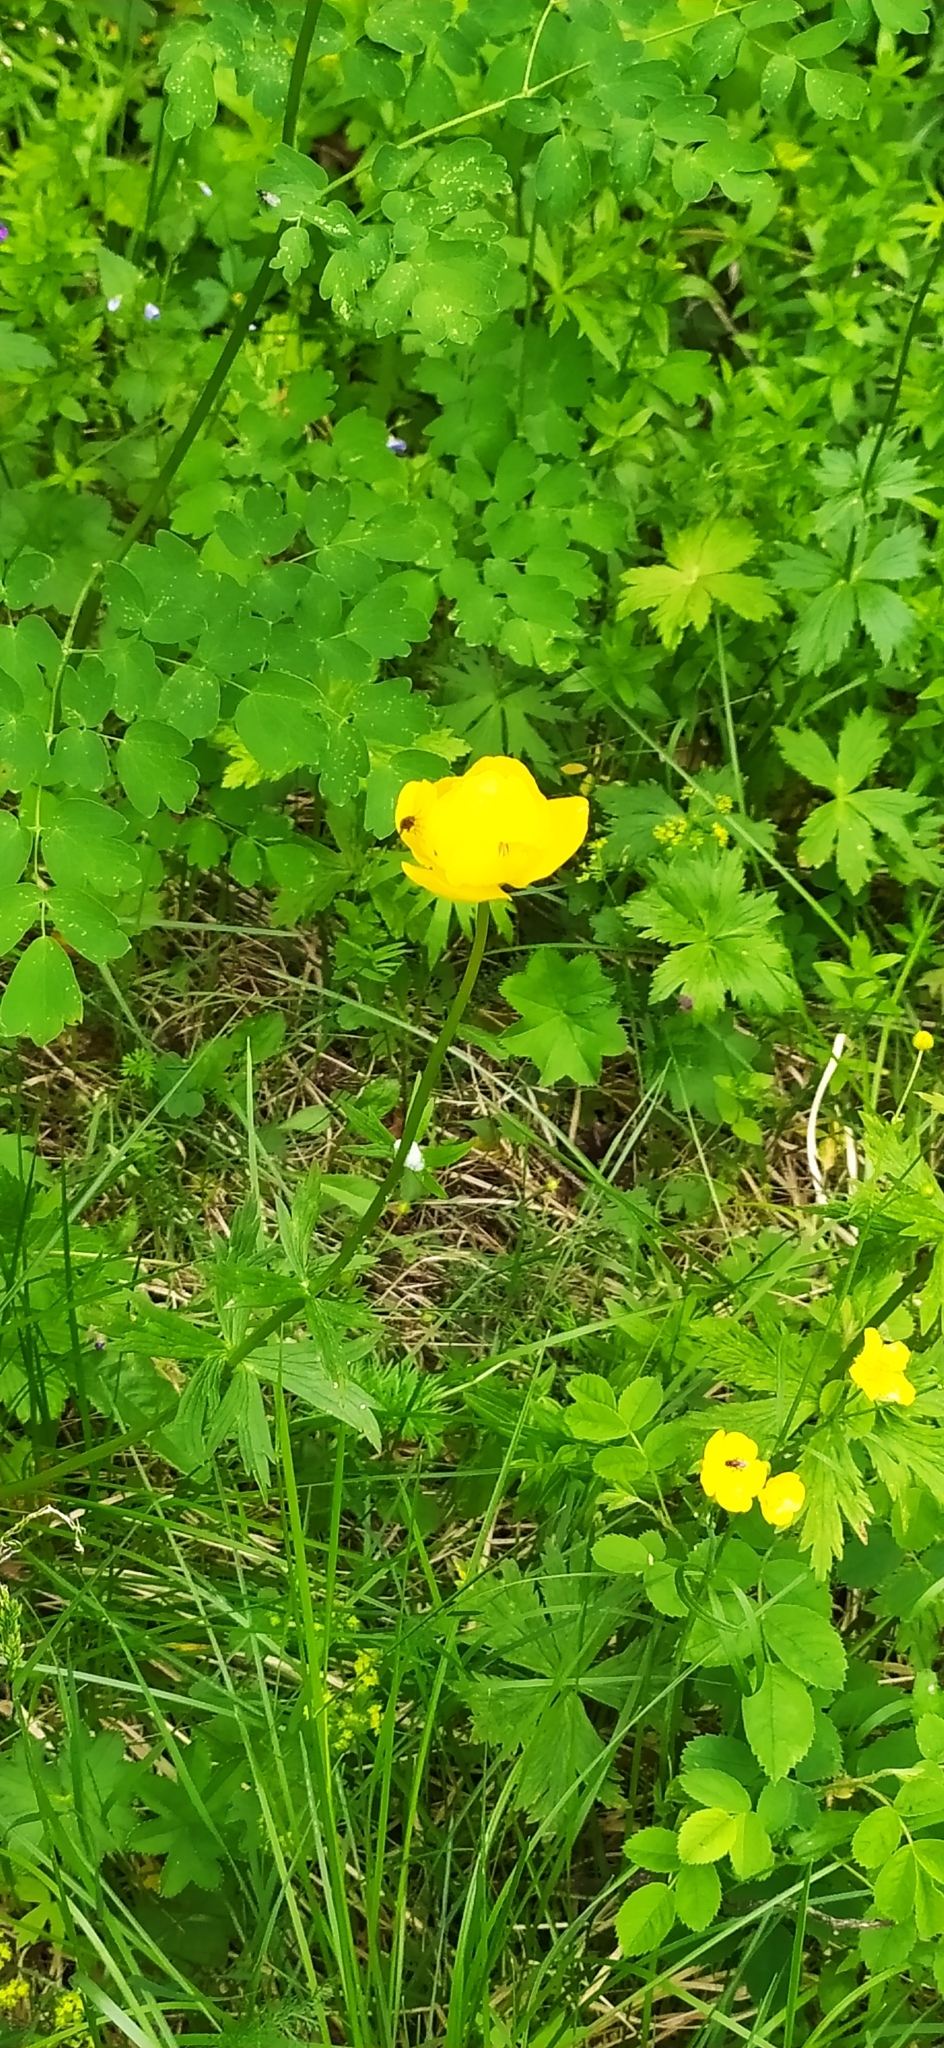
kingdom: Plantae
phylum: Tracheophyta
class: Magnoliopsida
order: Ranunculales
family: Ranunculaceae
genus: Trollius
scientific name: Trollius europaeus
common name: European globeflower
